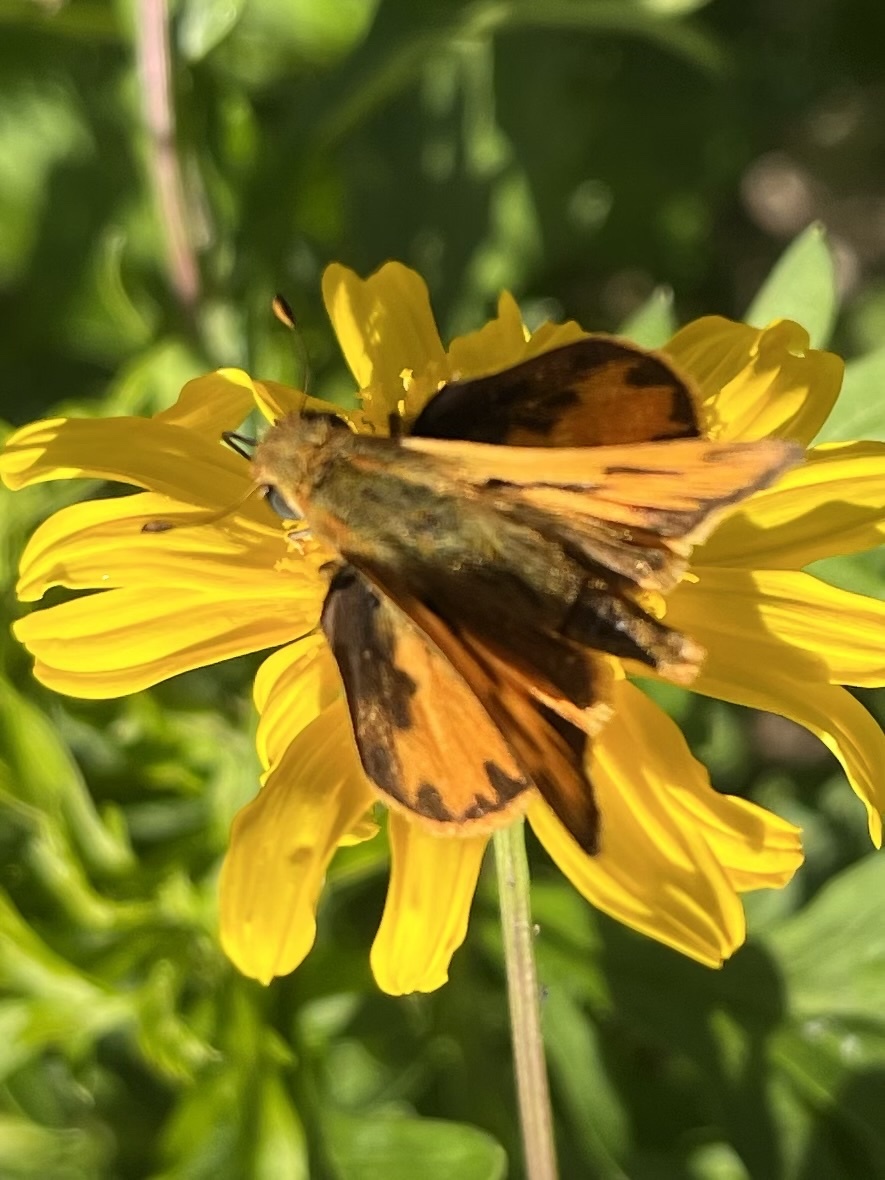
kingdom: Animalia
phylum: Arthropoda
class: Insecta
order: Lepidoptera
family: Hesperiidae
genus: Hylephila
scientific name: Hylephila phyleus
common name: Fiery skipper
